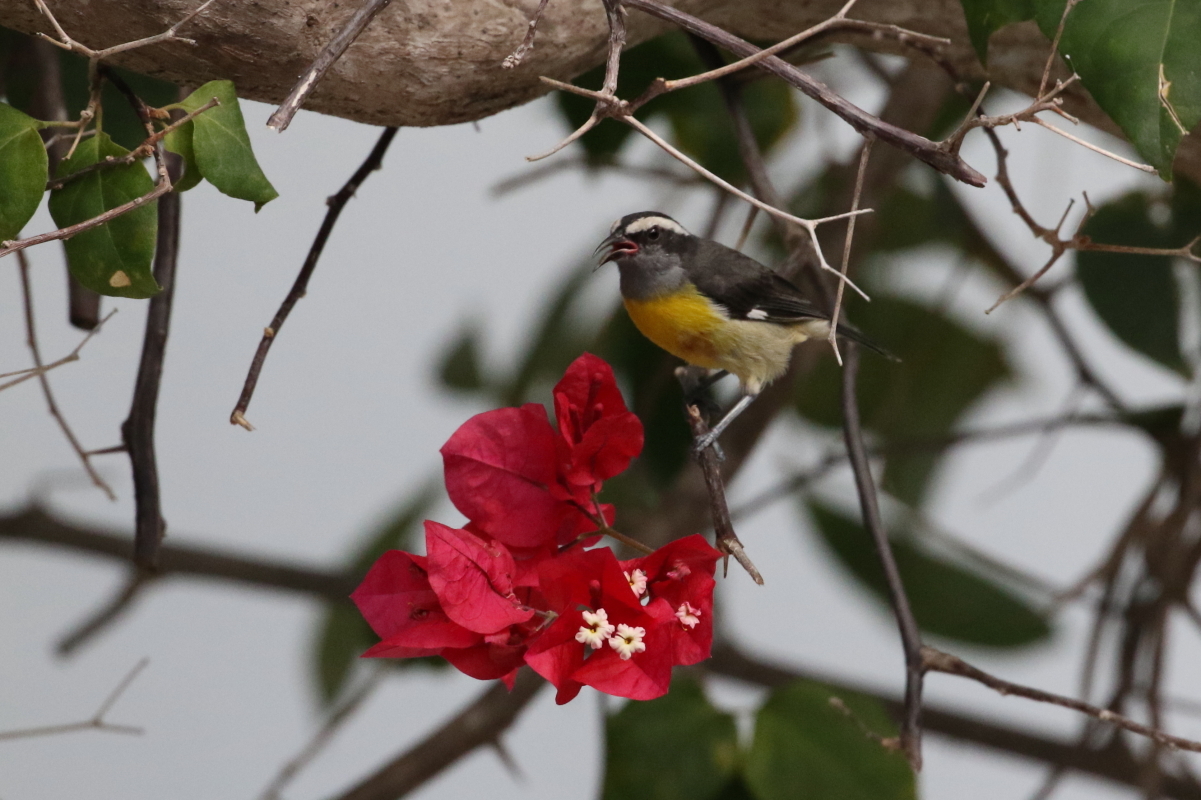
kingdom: Animalia
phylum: Chordata
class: Aves
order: Passeriformes
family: Thraupidae
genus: Coereba
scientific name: Coereba flaveola
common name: Bananaquit
